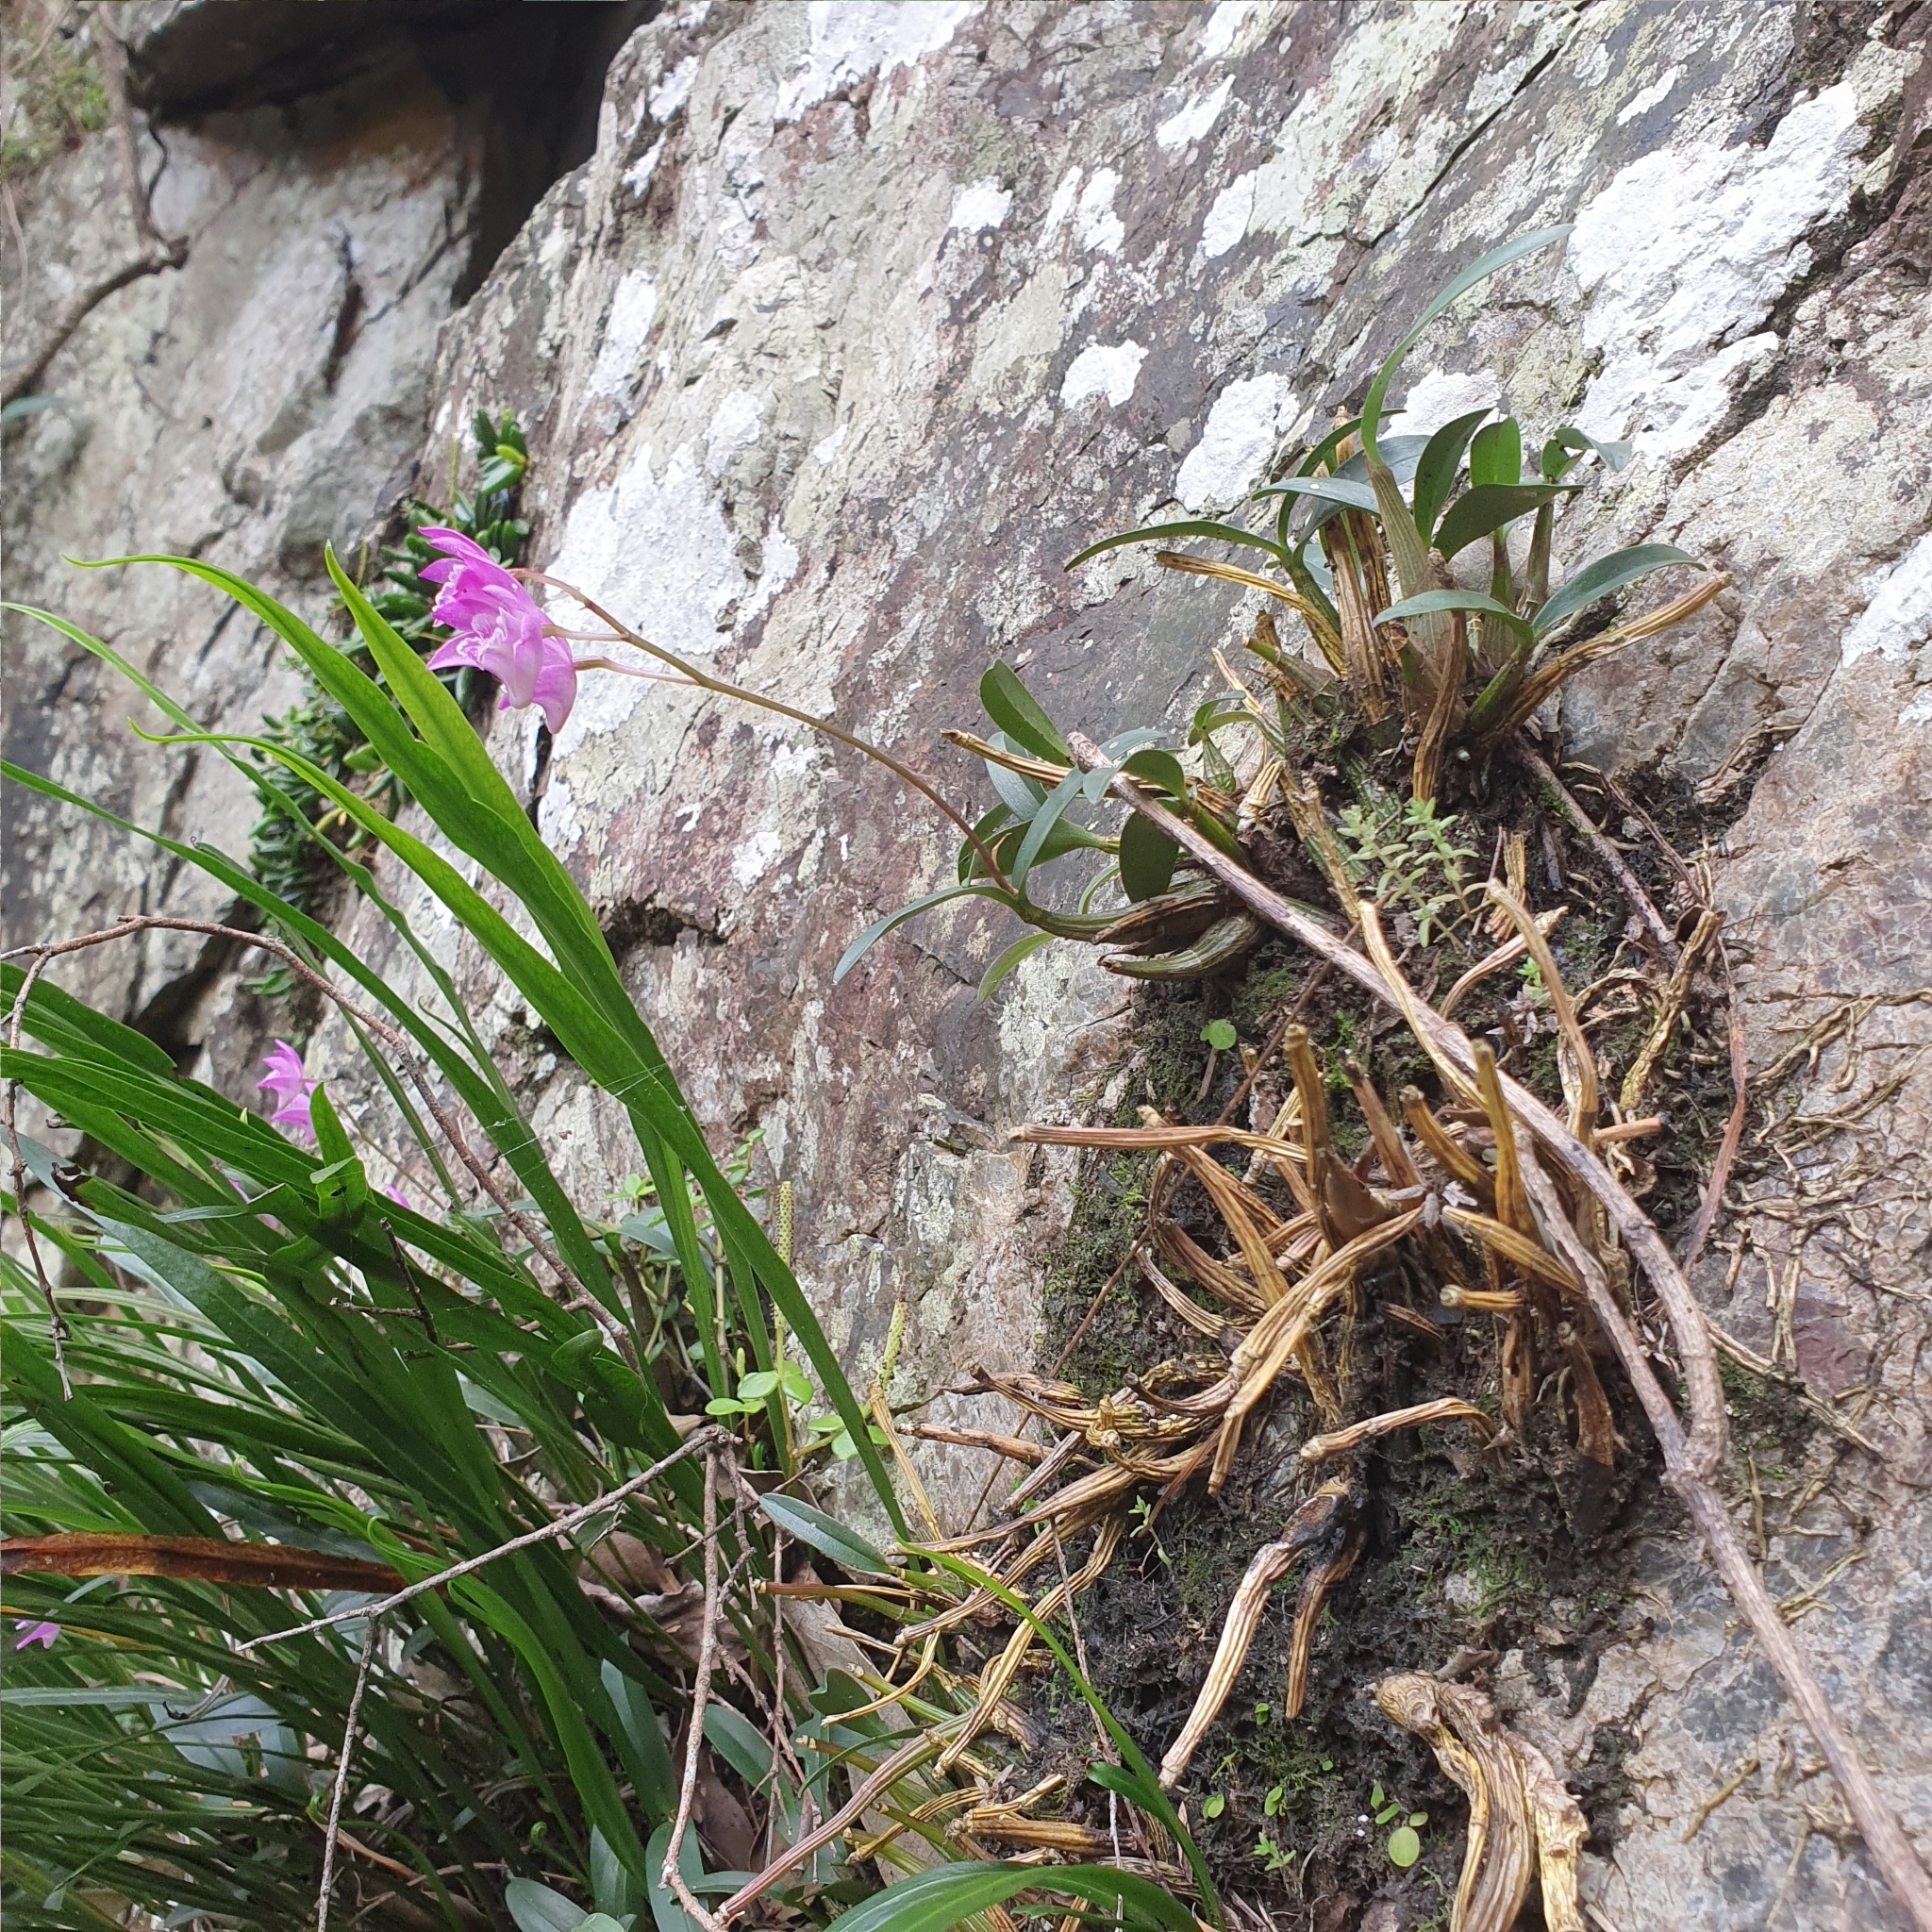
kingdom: Plantae
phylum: Tracheophyta
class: Liliopsida
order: Asparagales
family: Orchidaceae
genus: Dendrobium
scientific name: Dendrobium kingianum
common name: Pink rock orchid
